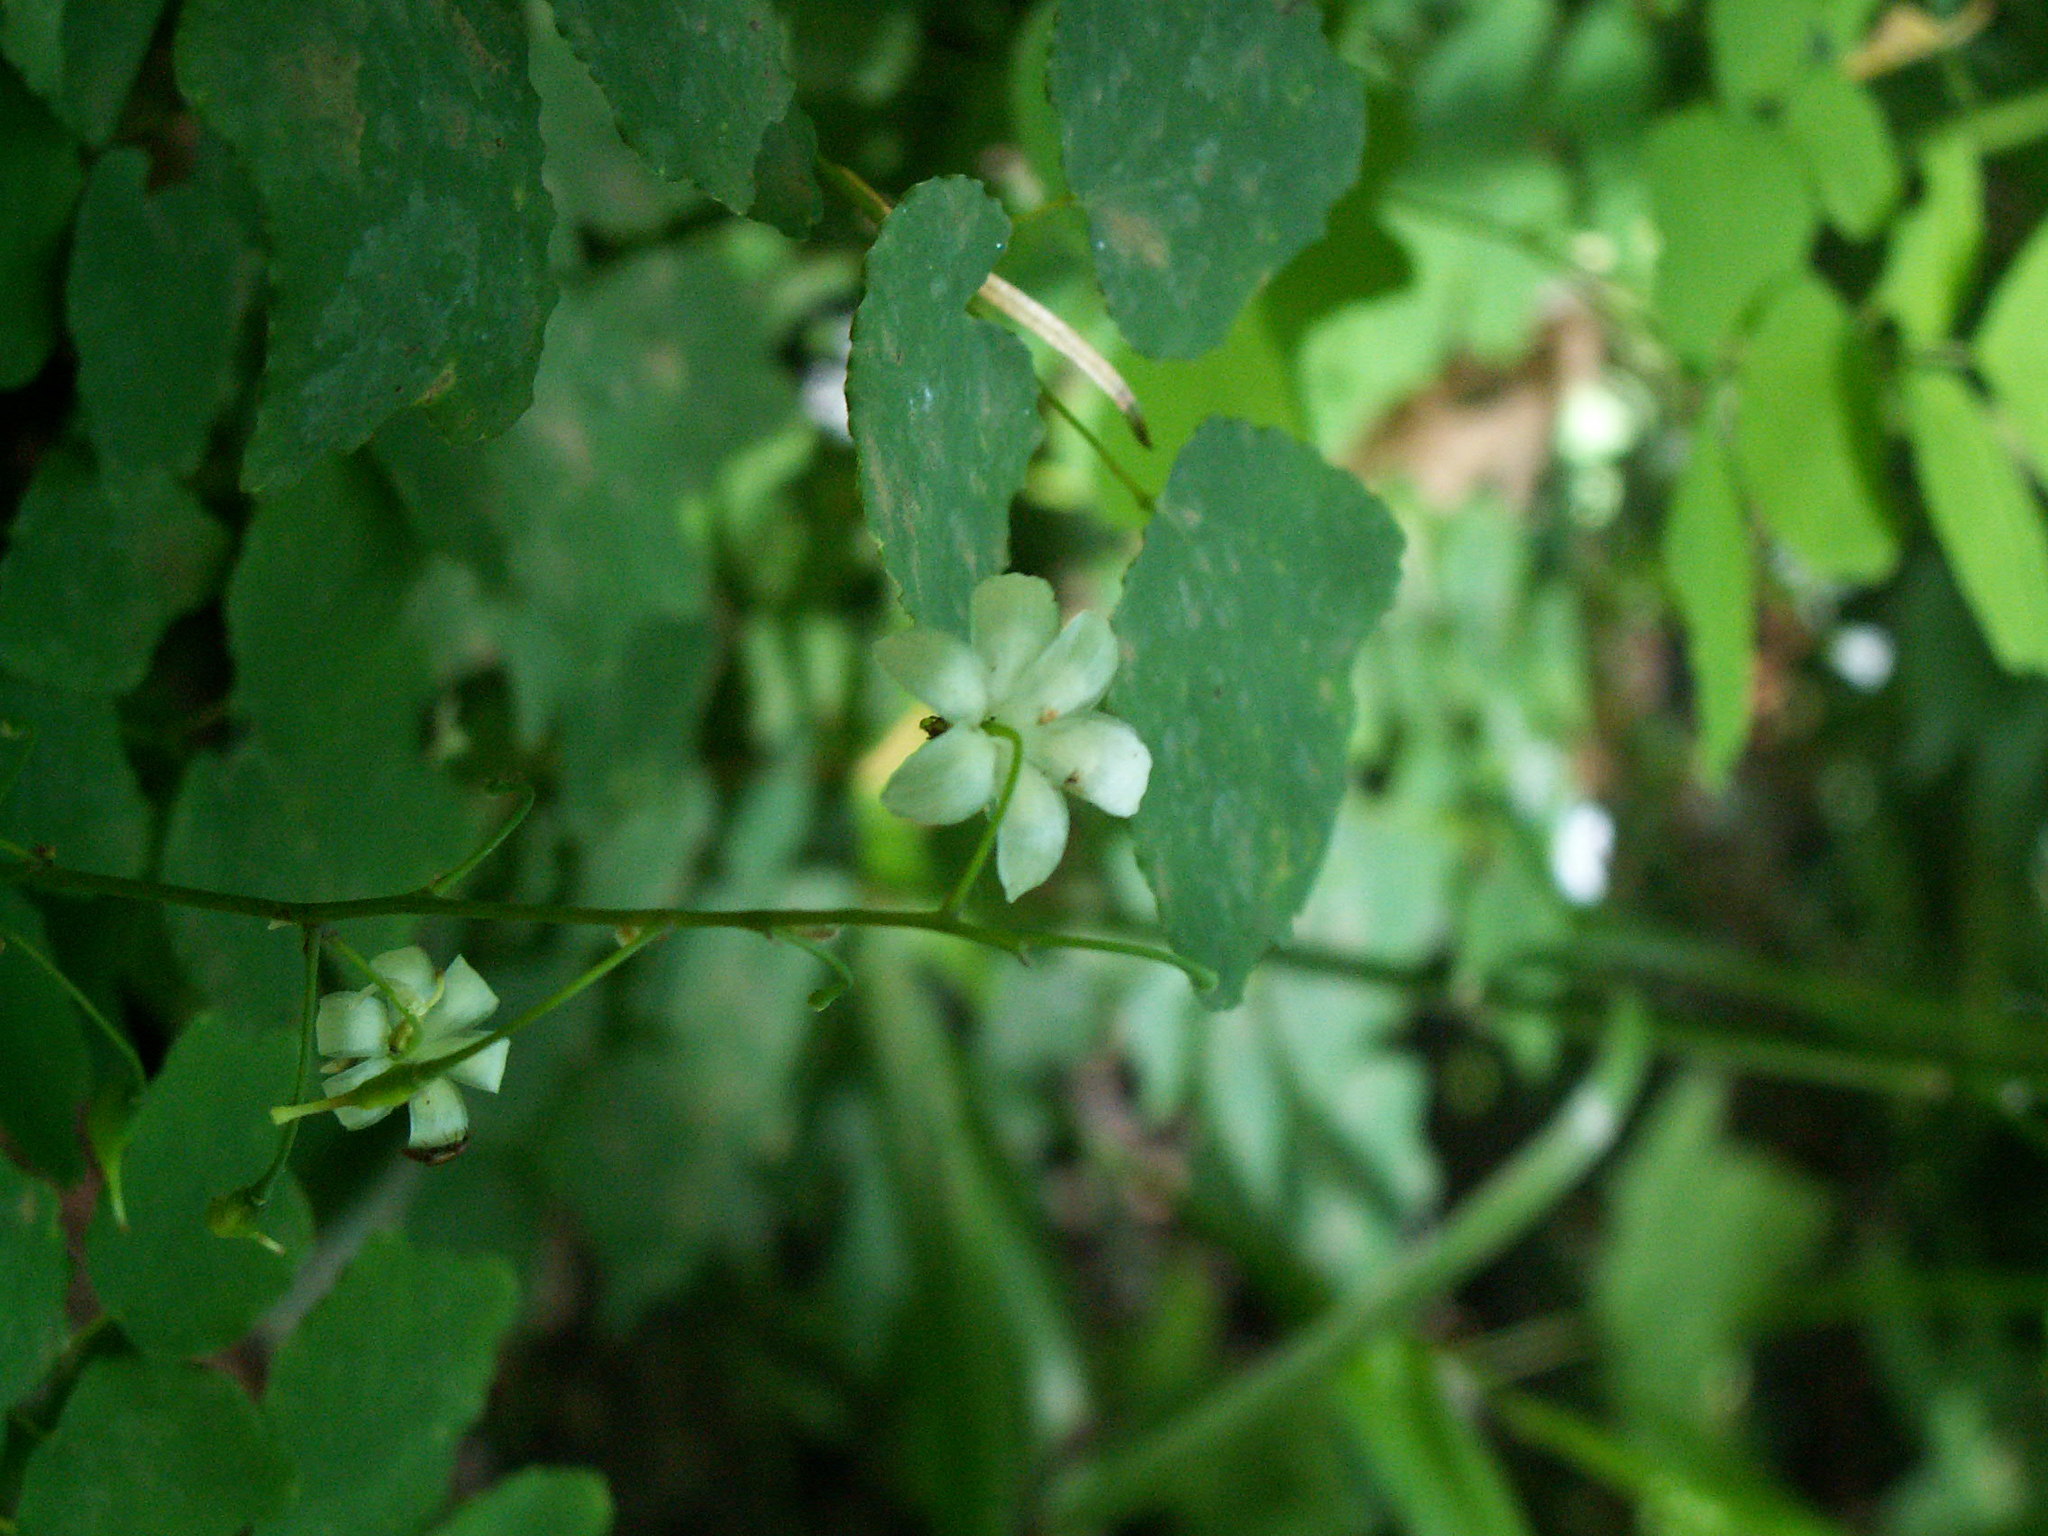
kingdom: Plantae
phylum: Tracheophyta
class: Magnoliopsida
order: Ranunculales
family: Berberidaceae
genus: Vancouveria
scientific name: Vancouveria hexandra
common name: Northern inside-out-flower
